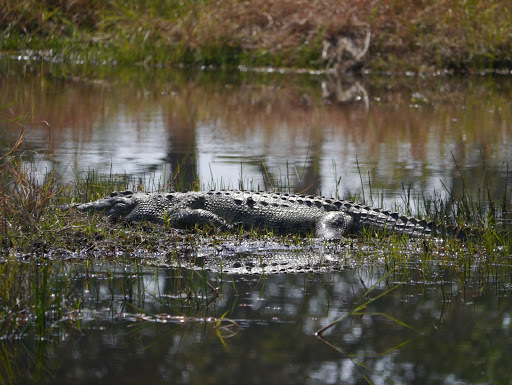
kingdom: Animalia
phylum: Chordata
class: Crocodylia
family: Crocodylidae
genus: Crocodylus
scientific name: Crocodylus niloticus
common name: Nile crocodile
